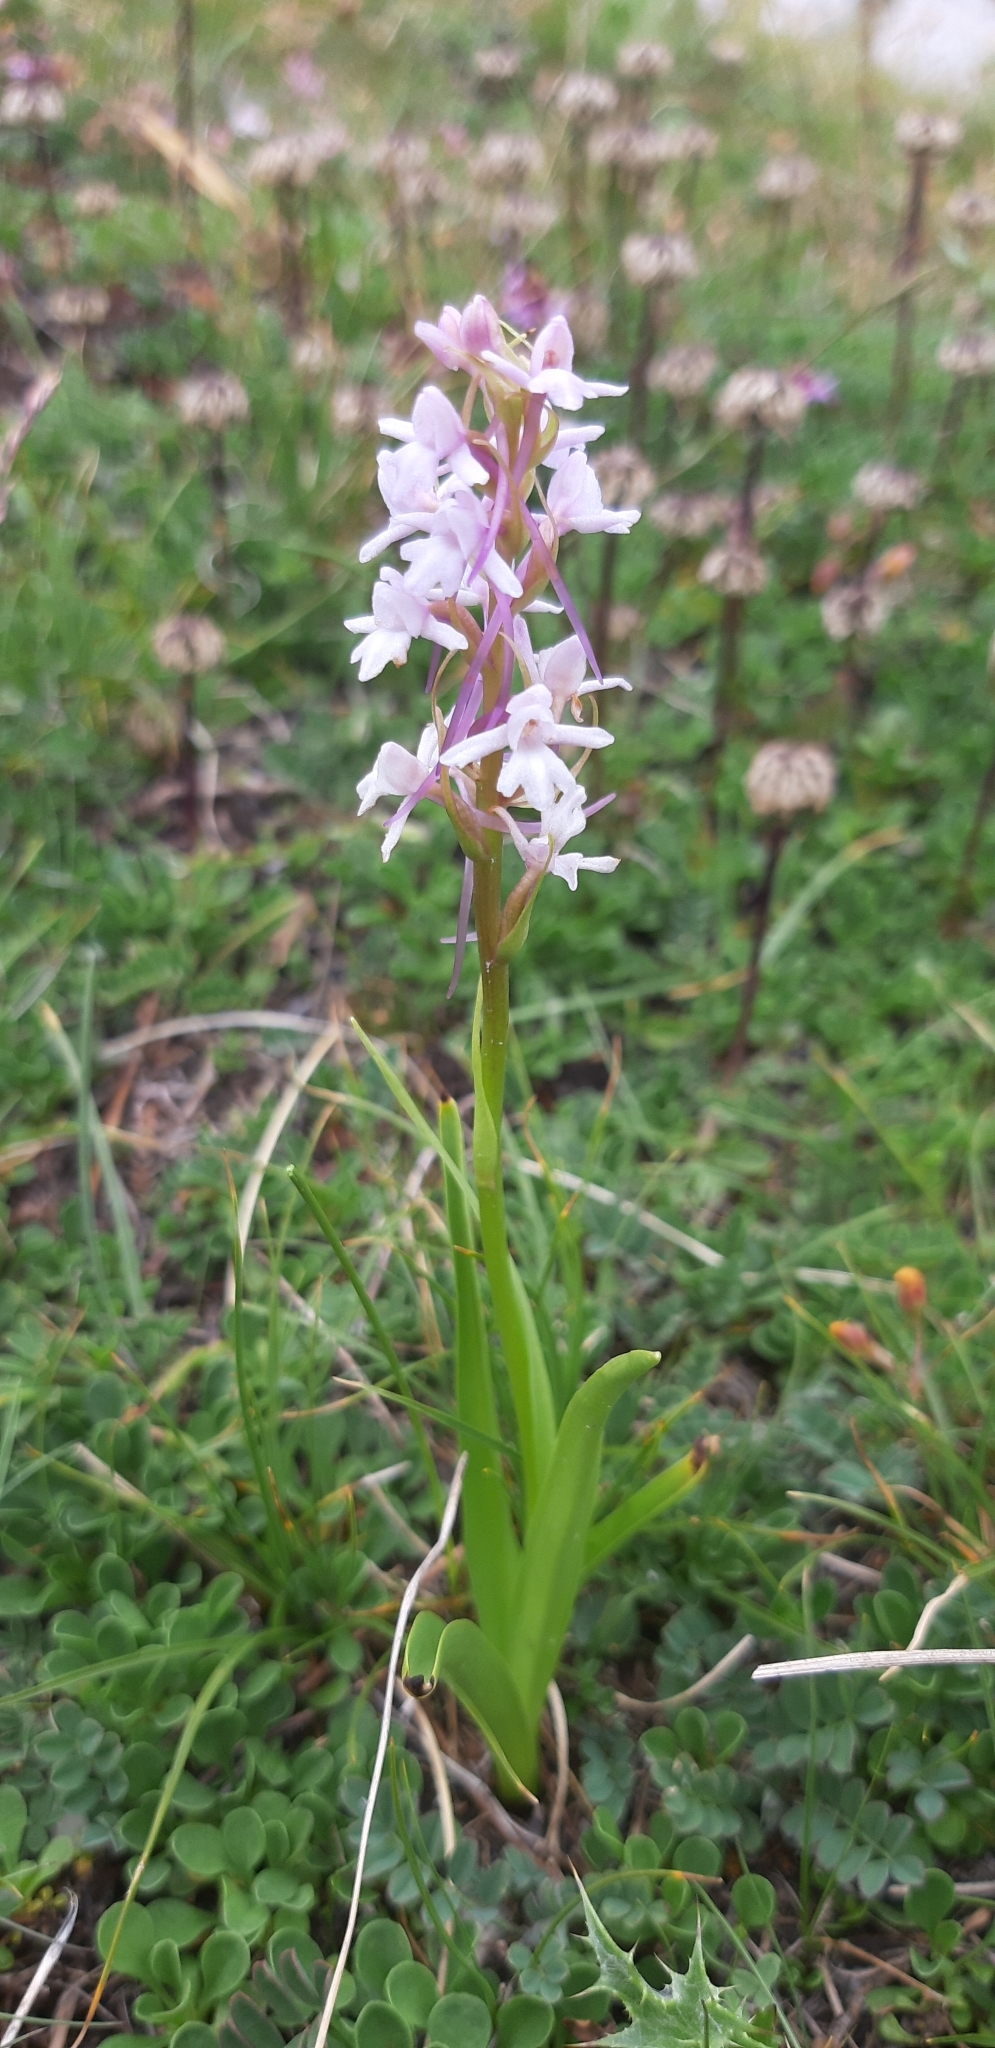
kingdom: Plantae
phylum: Tracheophyta
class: Liliopsida
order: Asparagales
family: Orchidaceae
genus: Gymnadenia
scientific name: Gymnadenia conopsea
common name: Fragrant orchid
